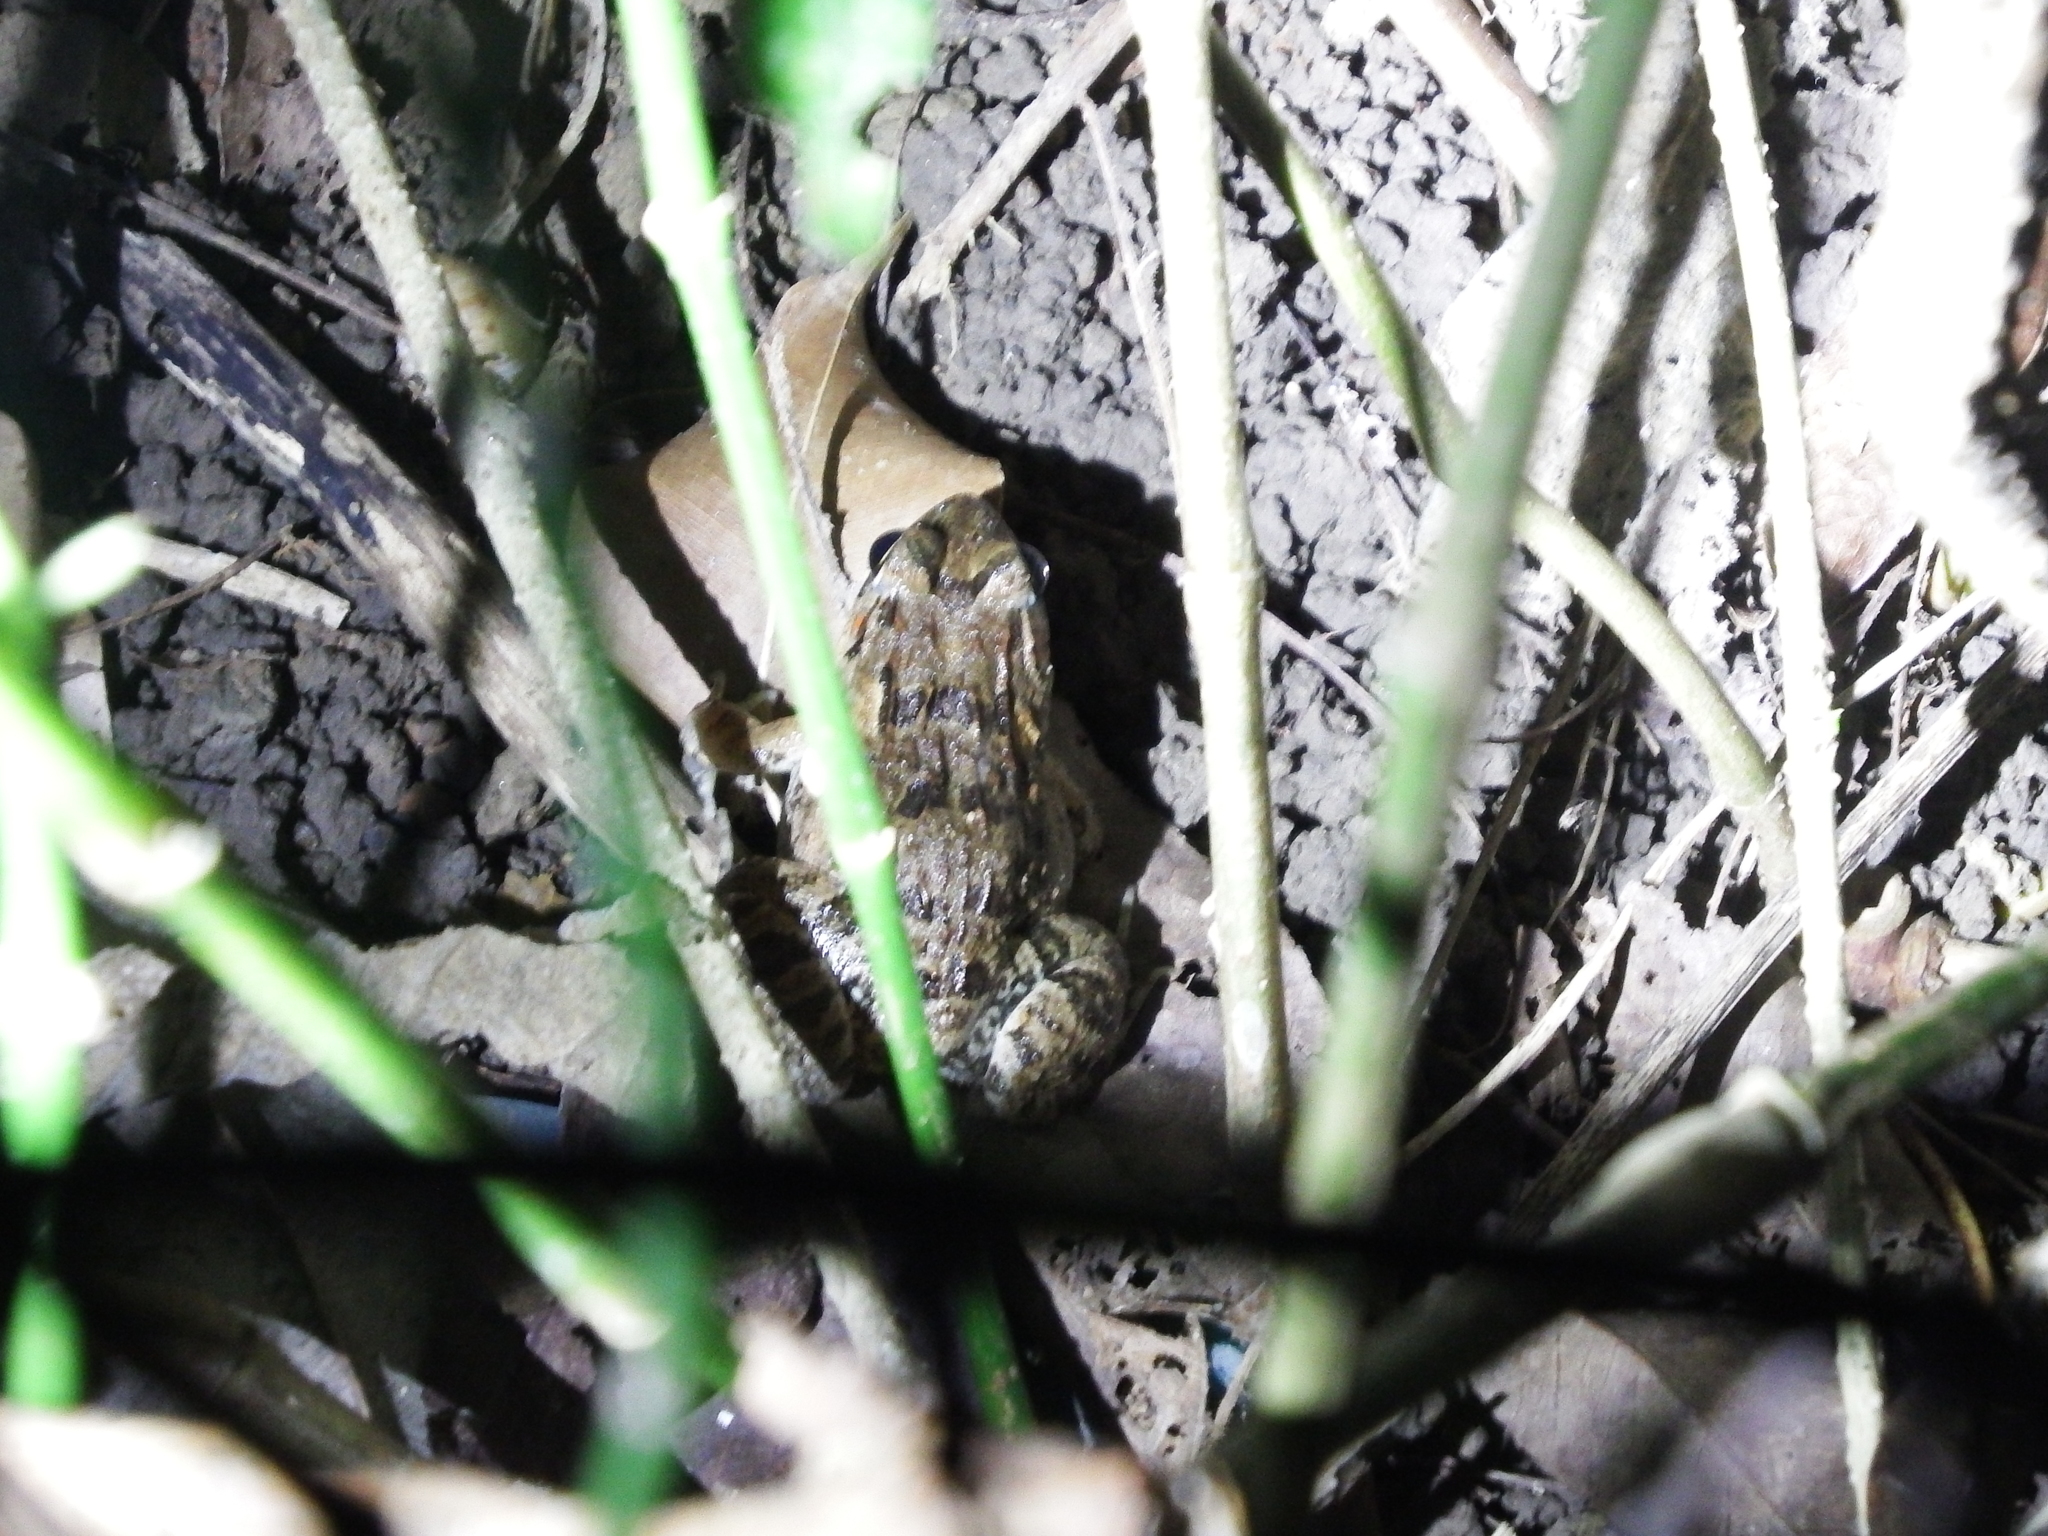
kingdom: Animalia
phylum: Chordata
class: Amphibia
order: Anura
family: Dicroglossidae
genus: Fejervarya
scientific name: Fejervarya limnocharis
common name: Asian grass frog/common pond frog/field frog/grass frog/indian rice frog
